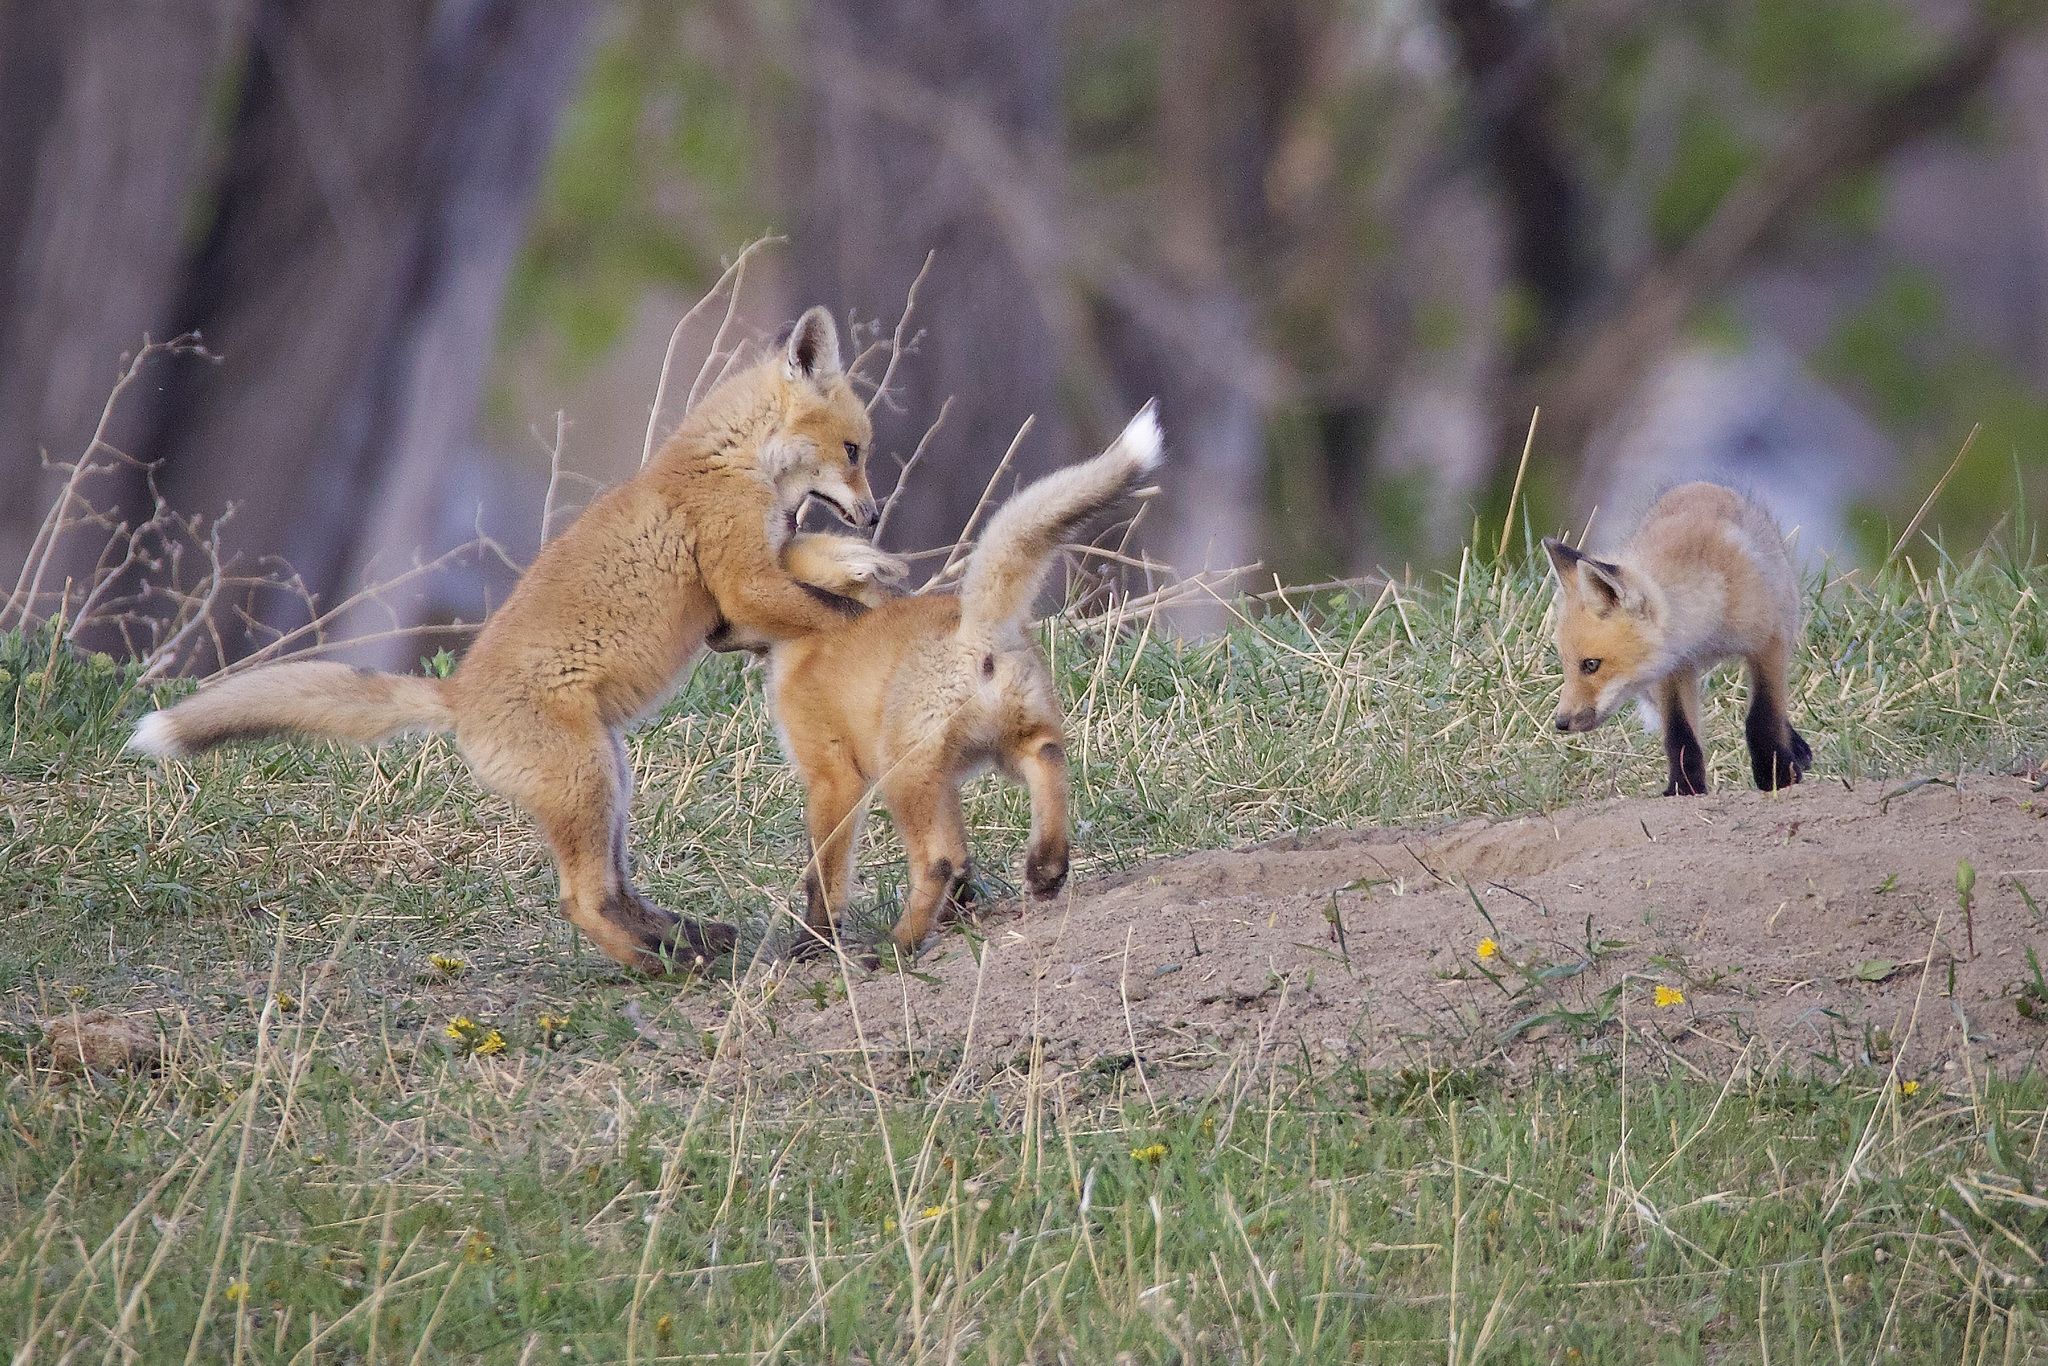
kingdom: Animalia
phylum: Chordata
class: Mammalia
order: Carnivora
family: Canidae
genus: Vulpes
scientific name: Vulpes vulpes
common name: Red fox
